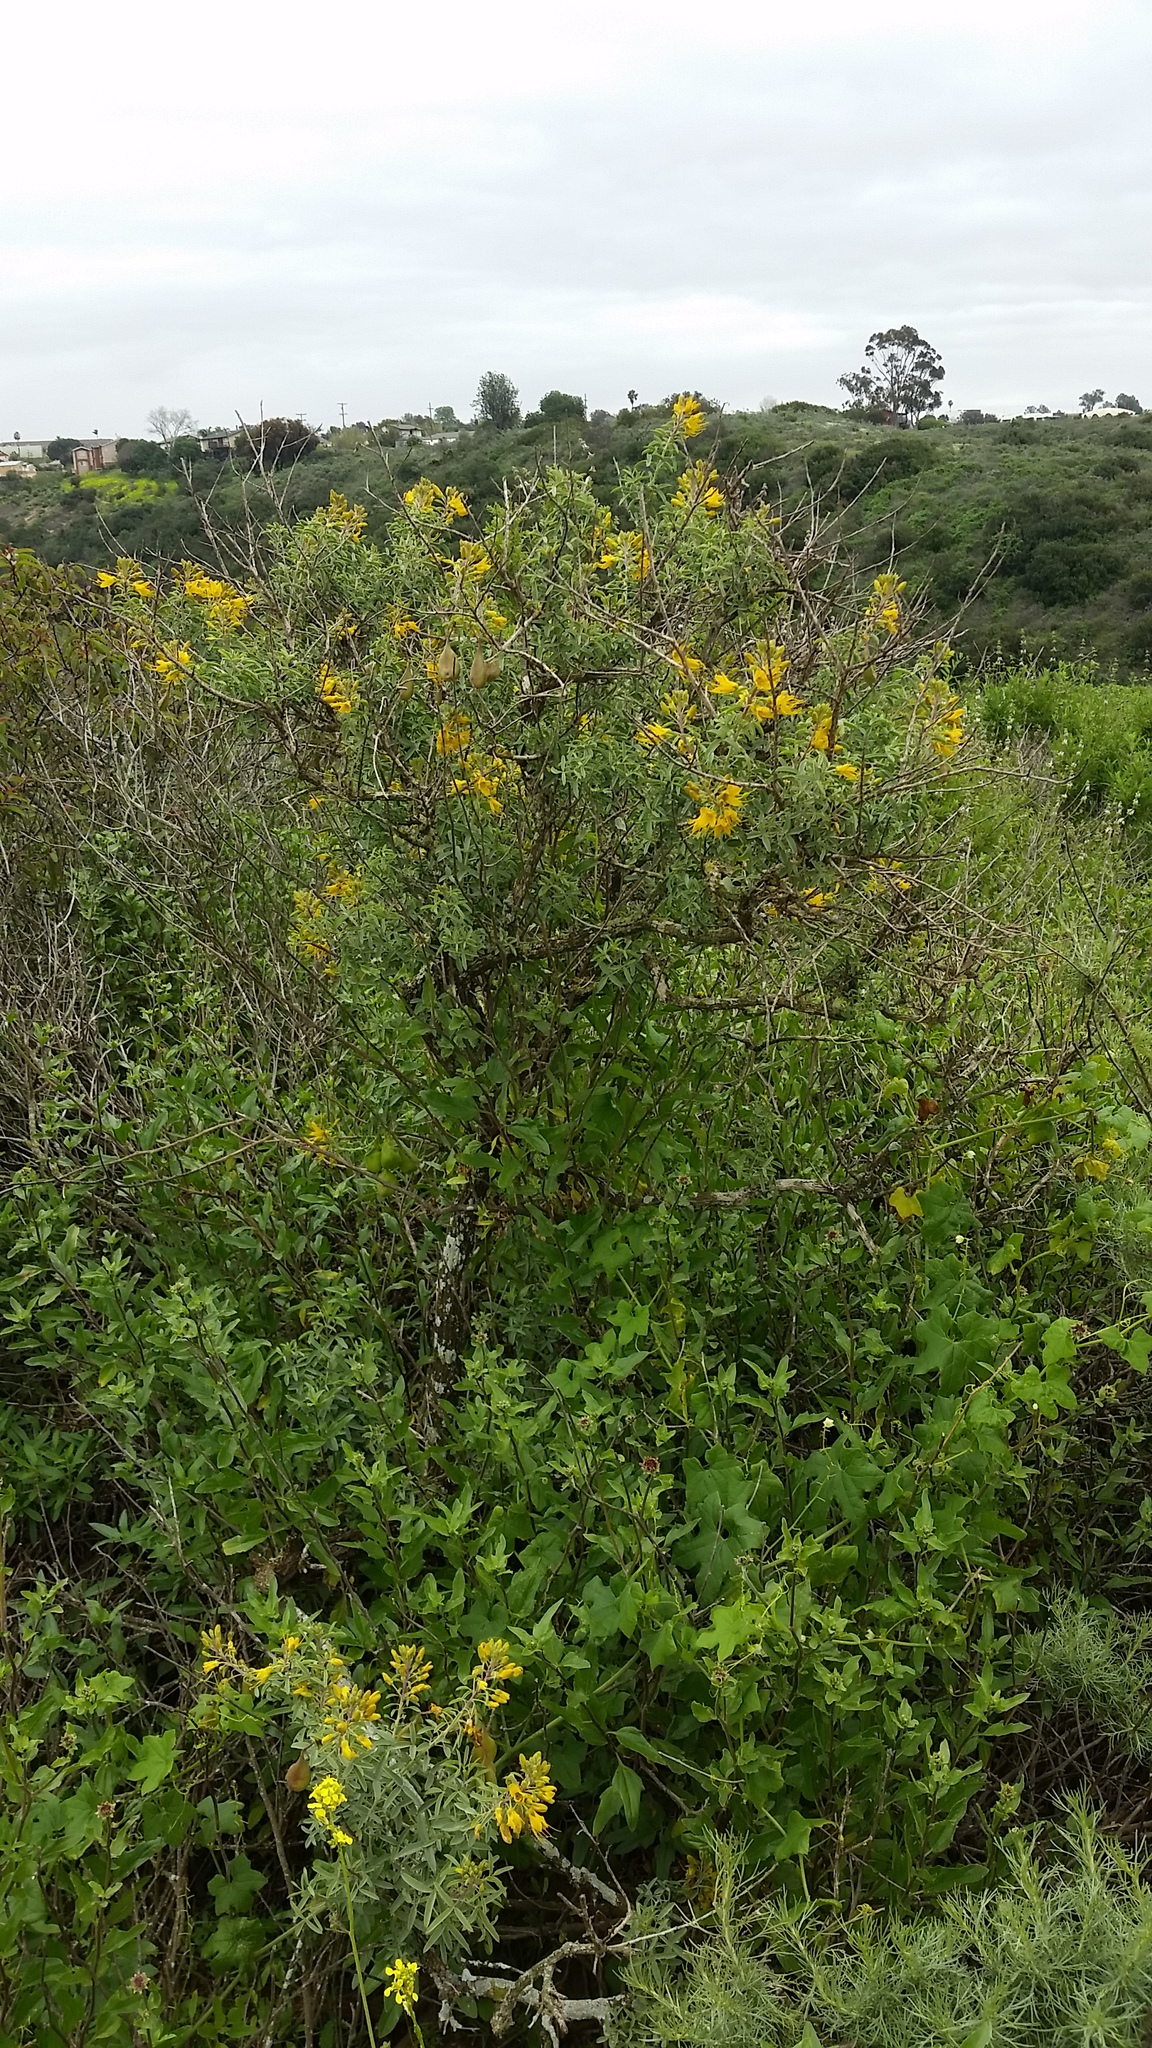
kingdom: Plantae
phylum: Tracheophyta
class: Magnoliopsida
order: Brassicales
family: Cleomaceae
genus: Cleomella
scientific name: Cleomella arborea
